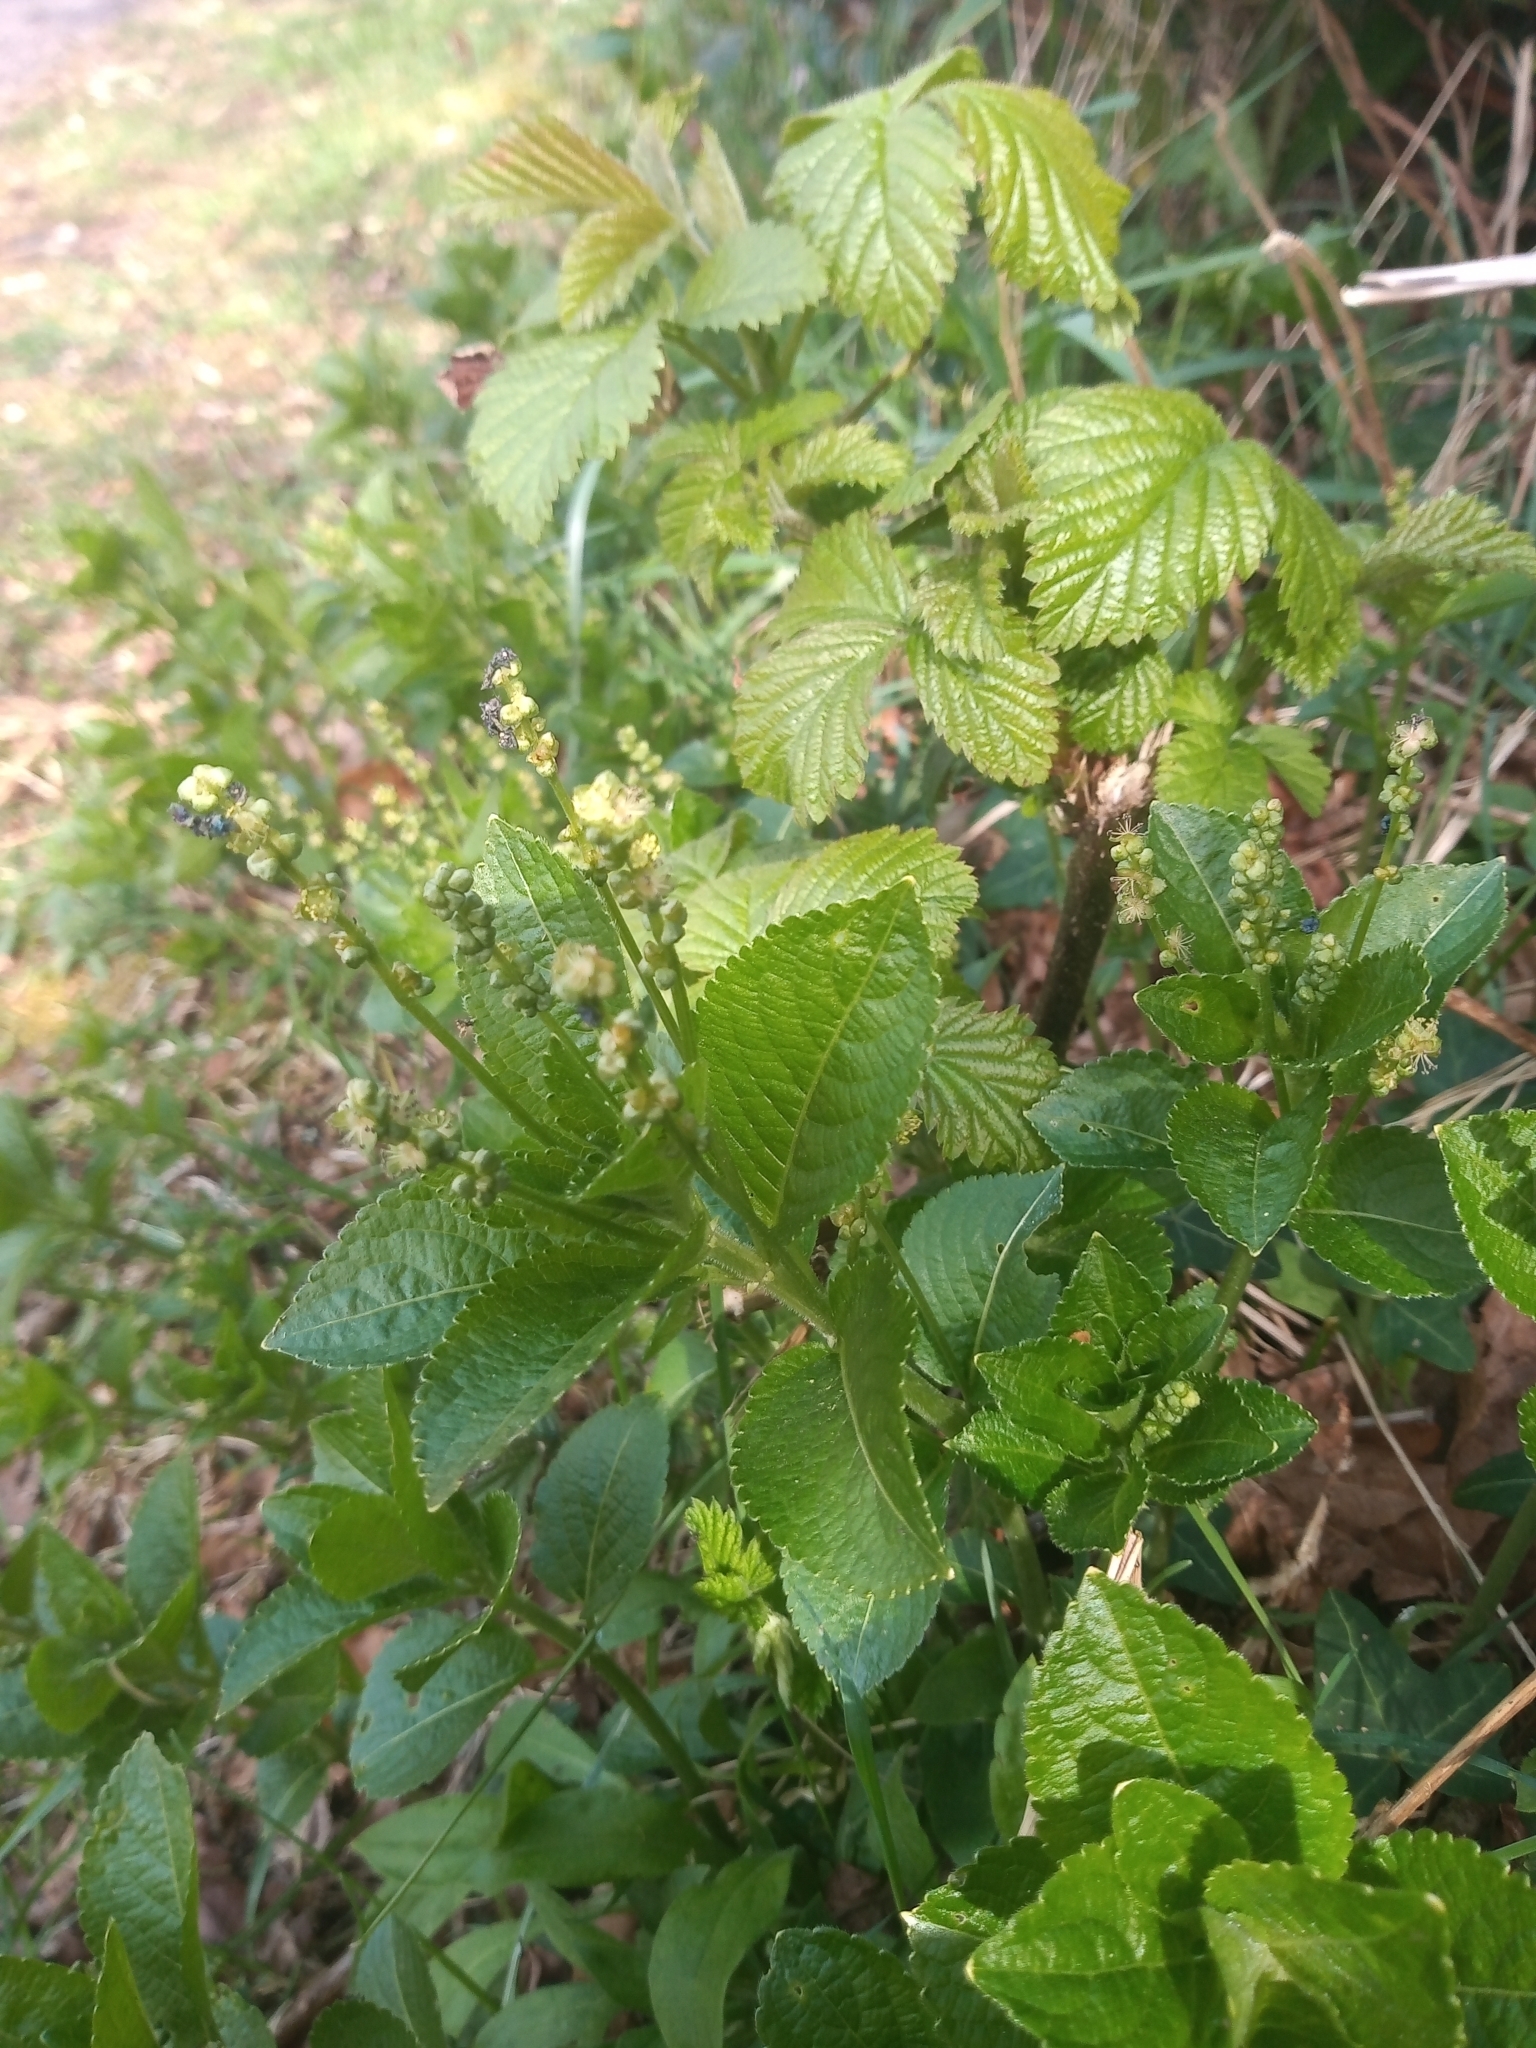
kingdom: Plantae
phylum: Tracheophyta
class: Magnoliopsida
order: Malpighiales
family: Euphorbiaceae
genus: Mercurialis
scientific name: Mercurialis perennis
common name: Dog mercury
